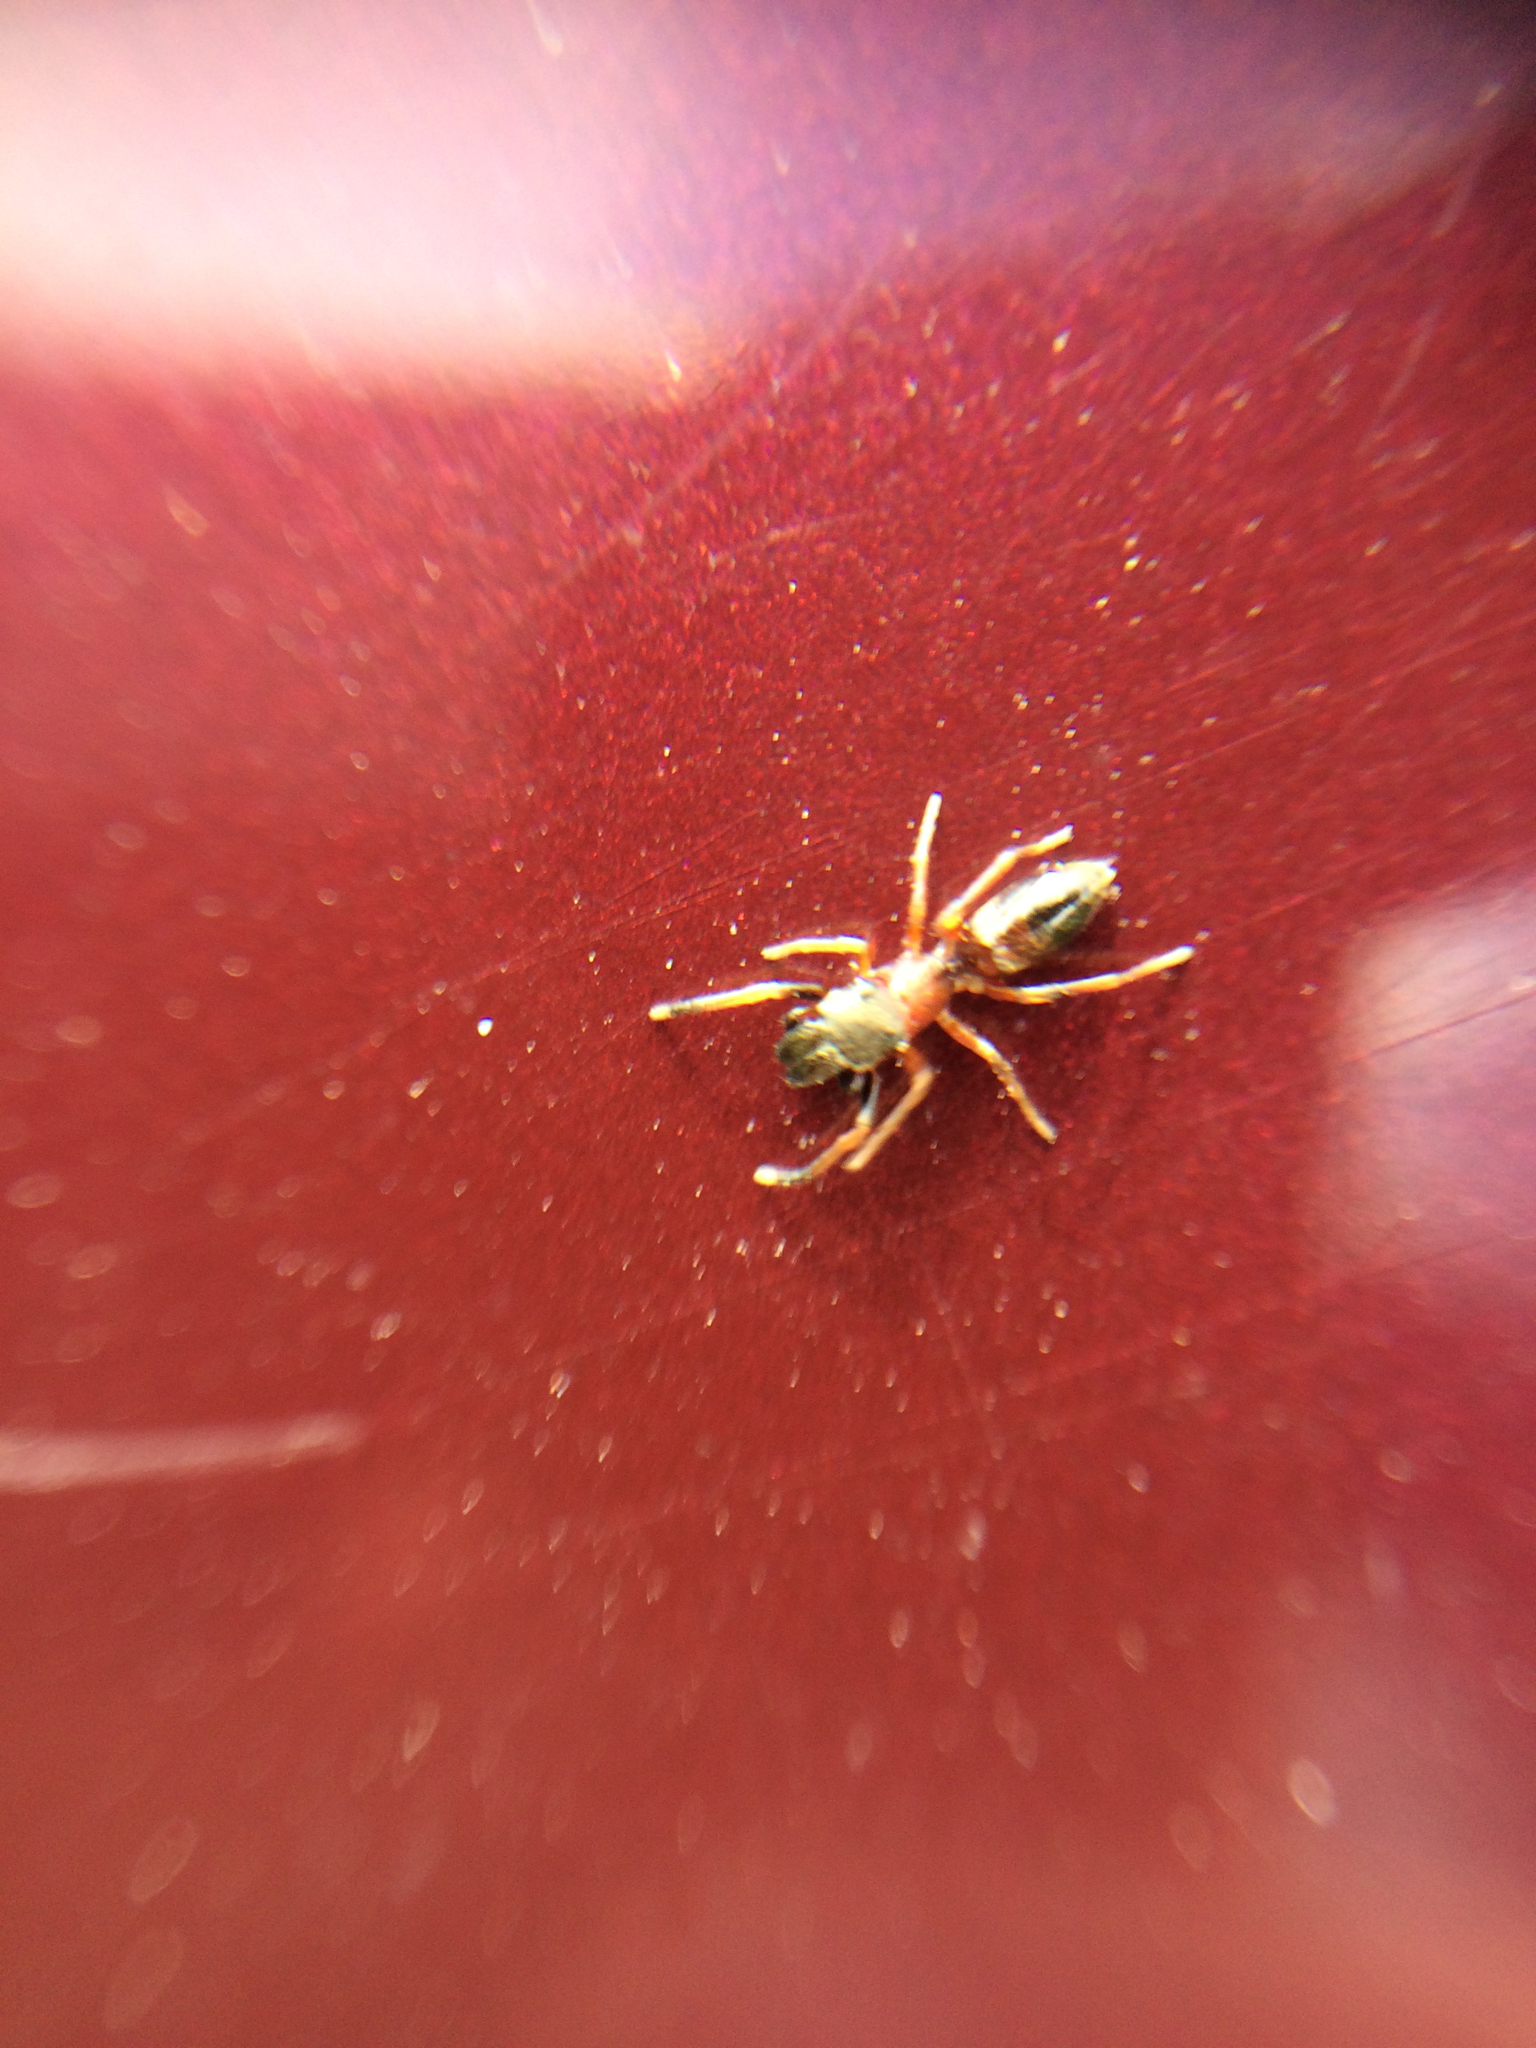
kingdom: Animalia
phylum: Arthropoda
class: Arachnida
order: Araneae
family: Salticidae
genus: Myrmarachne
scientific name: Myrmarachne formicaria
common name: Ant mimic jumping spider
